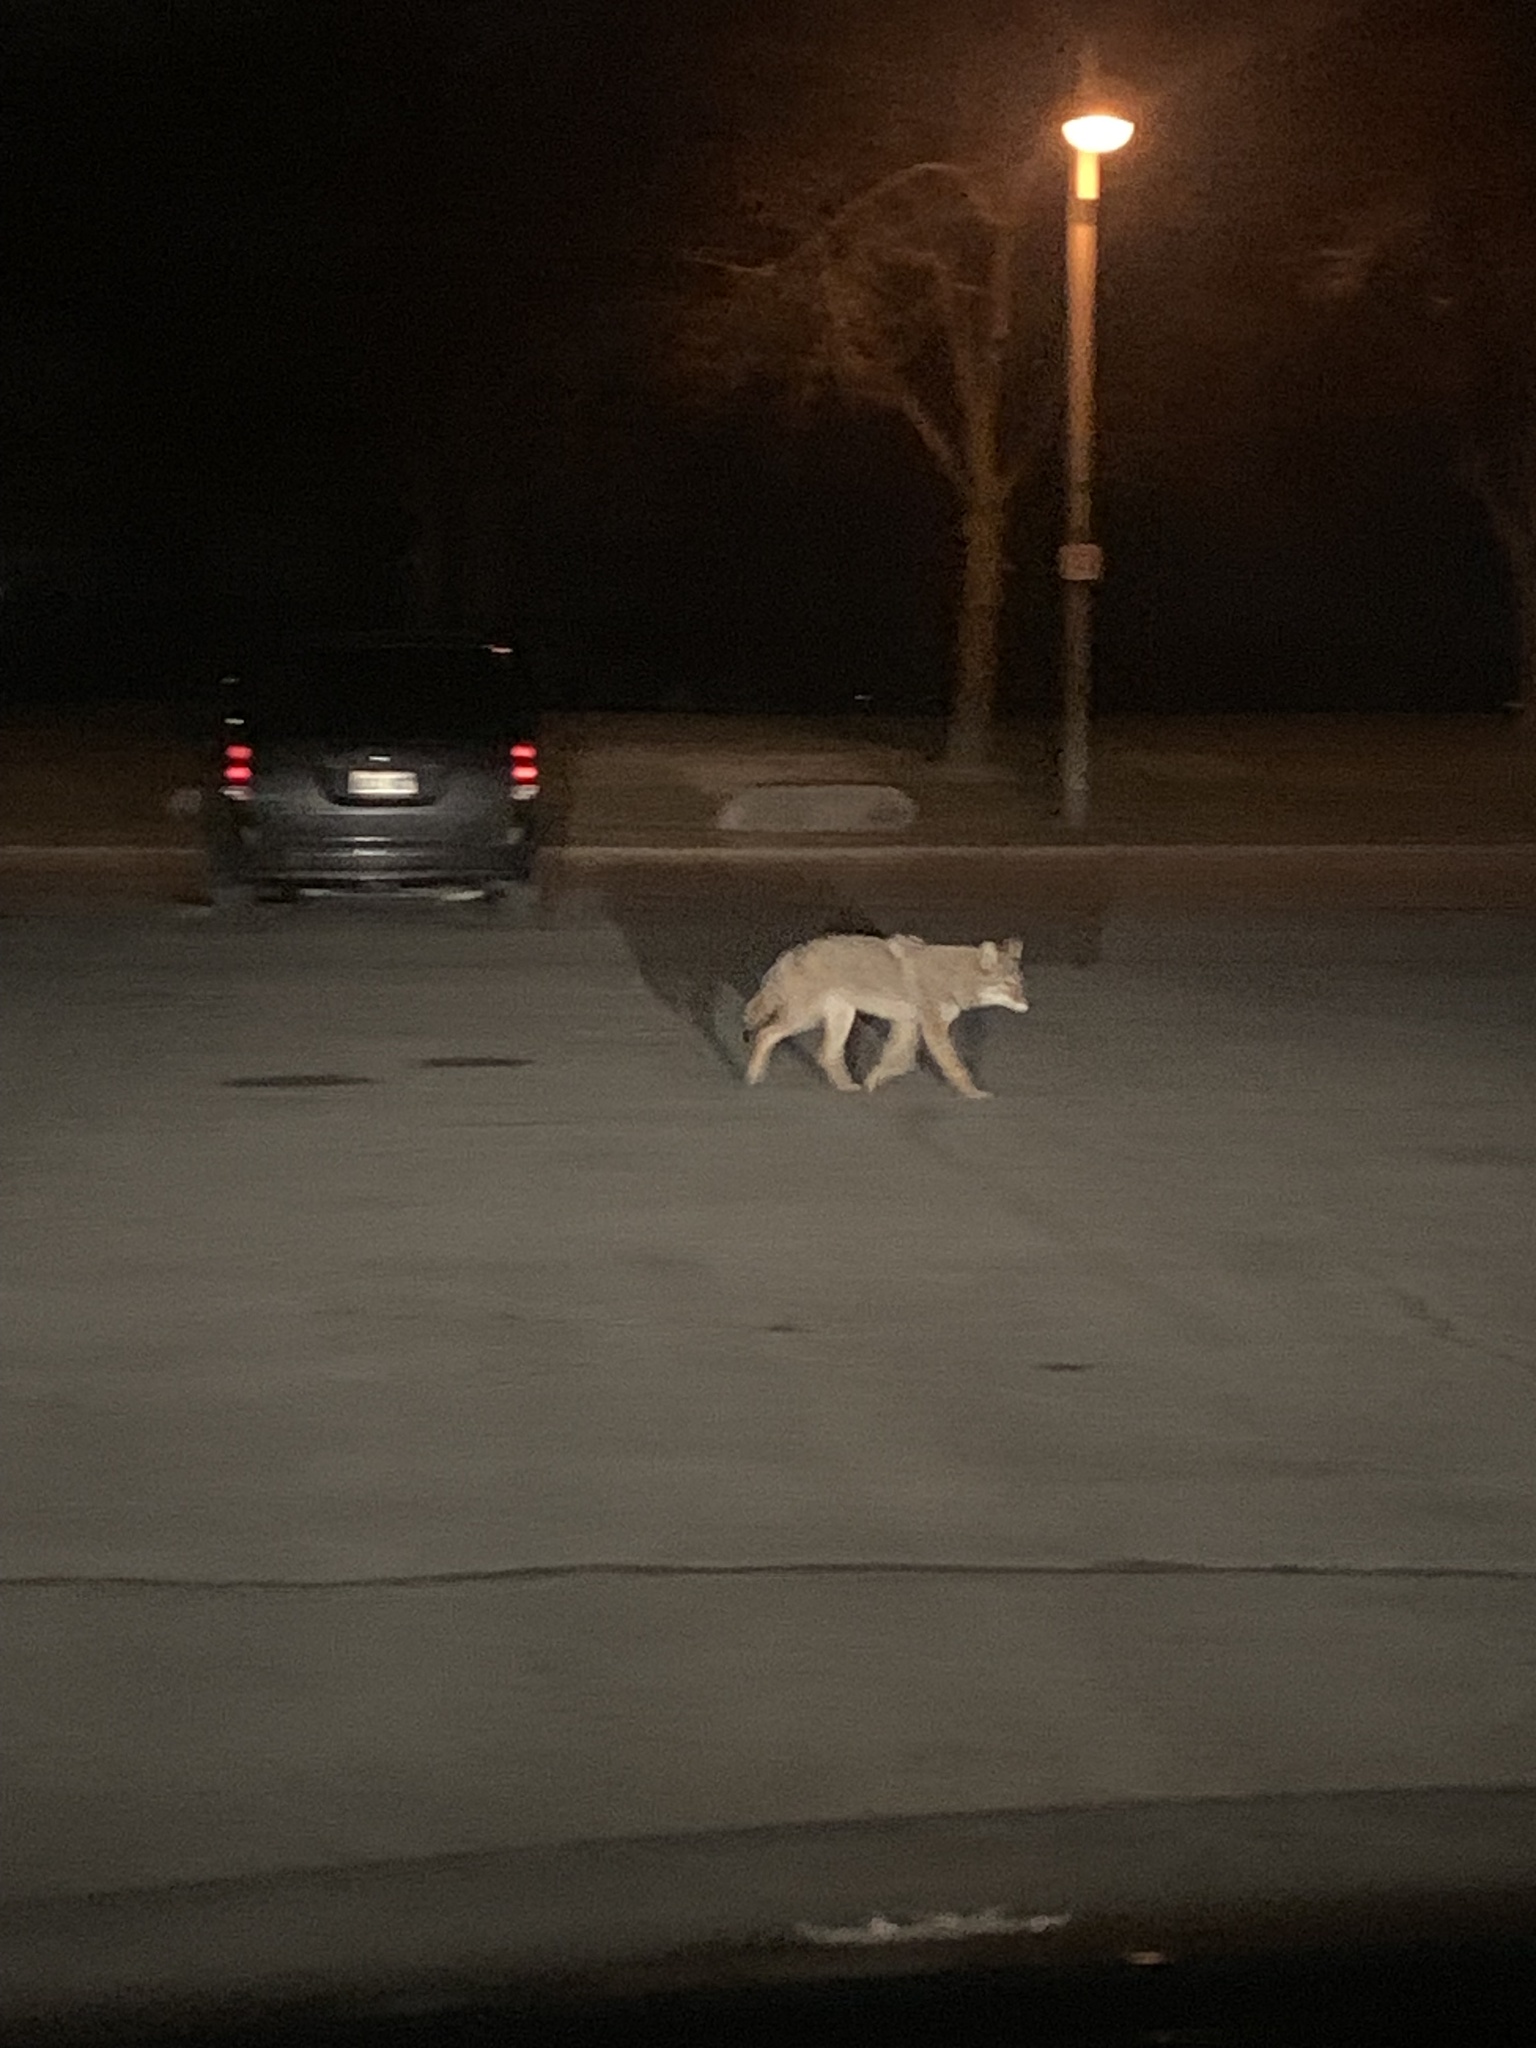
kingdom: Animalia
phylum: Chordata
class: Mammalia
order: Carnivora
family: Canidae
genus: Canis
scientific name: Canis latrans
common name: Coyote
